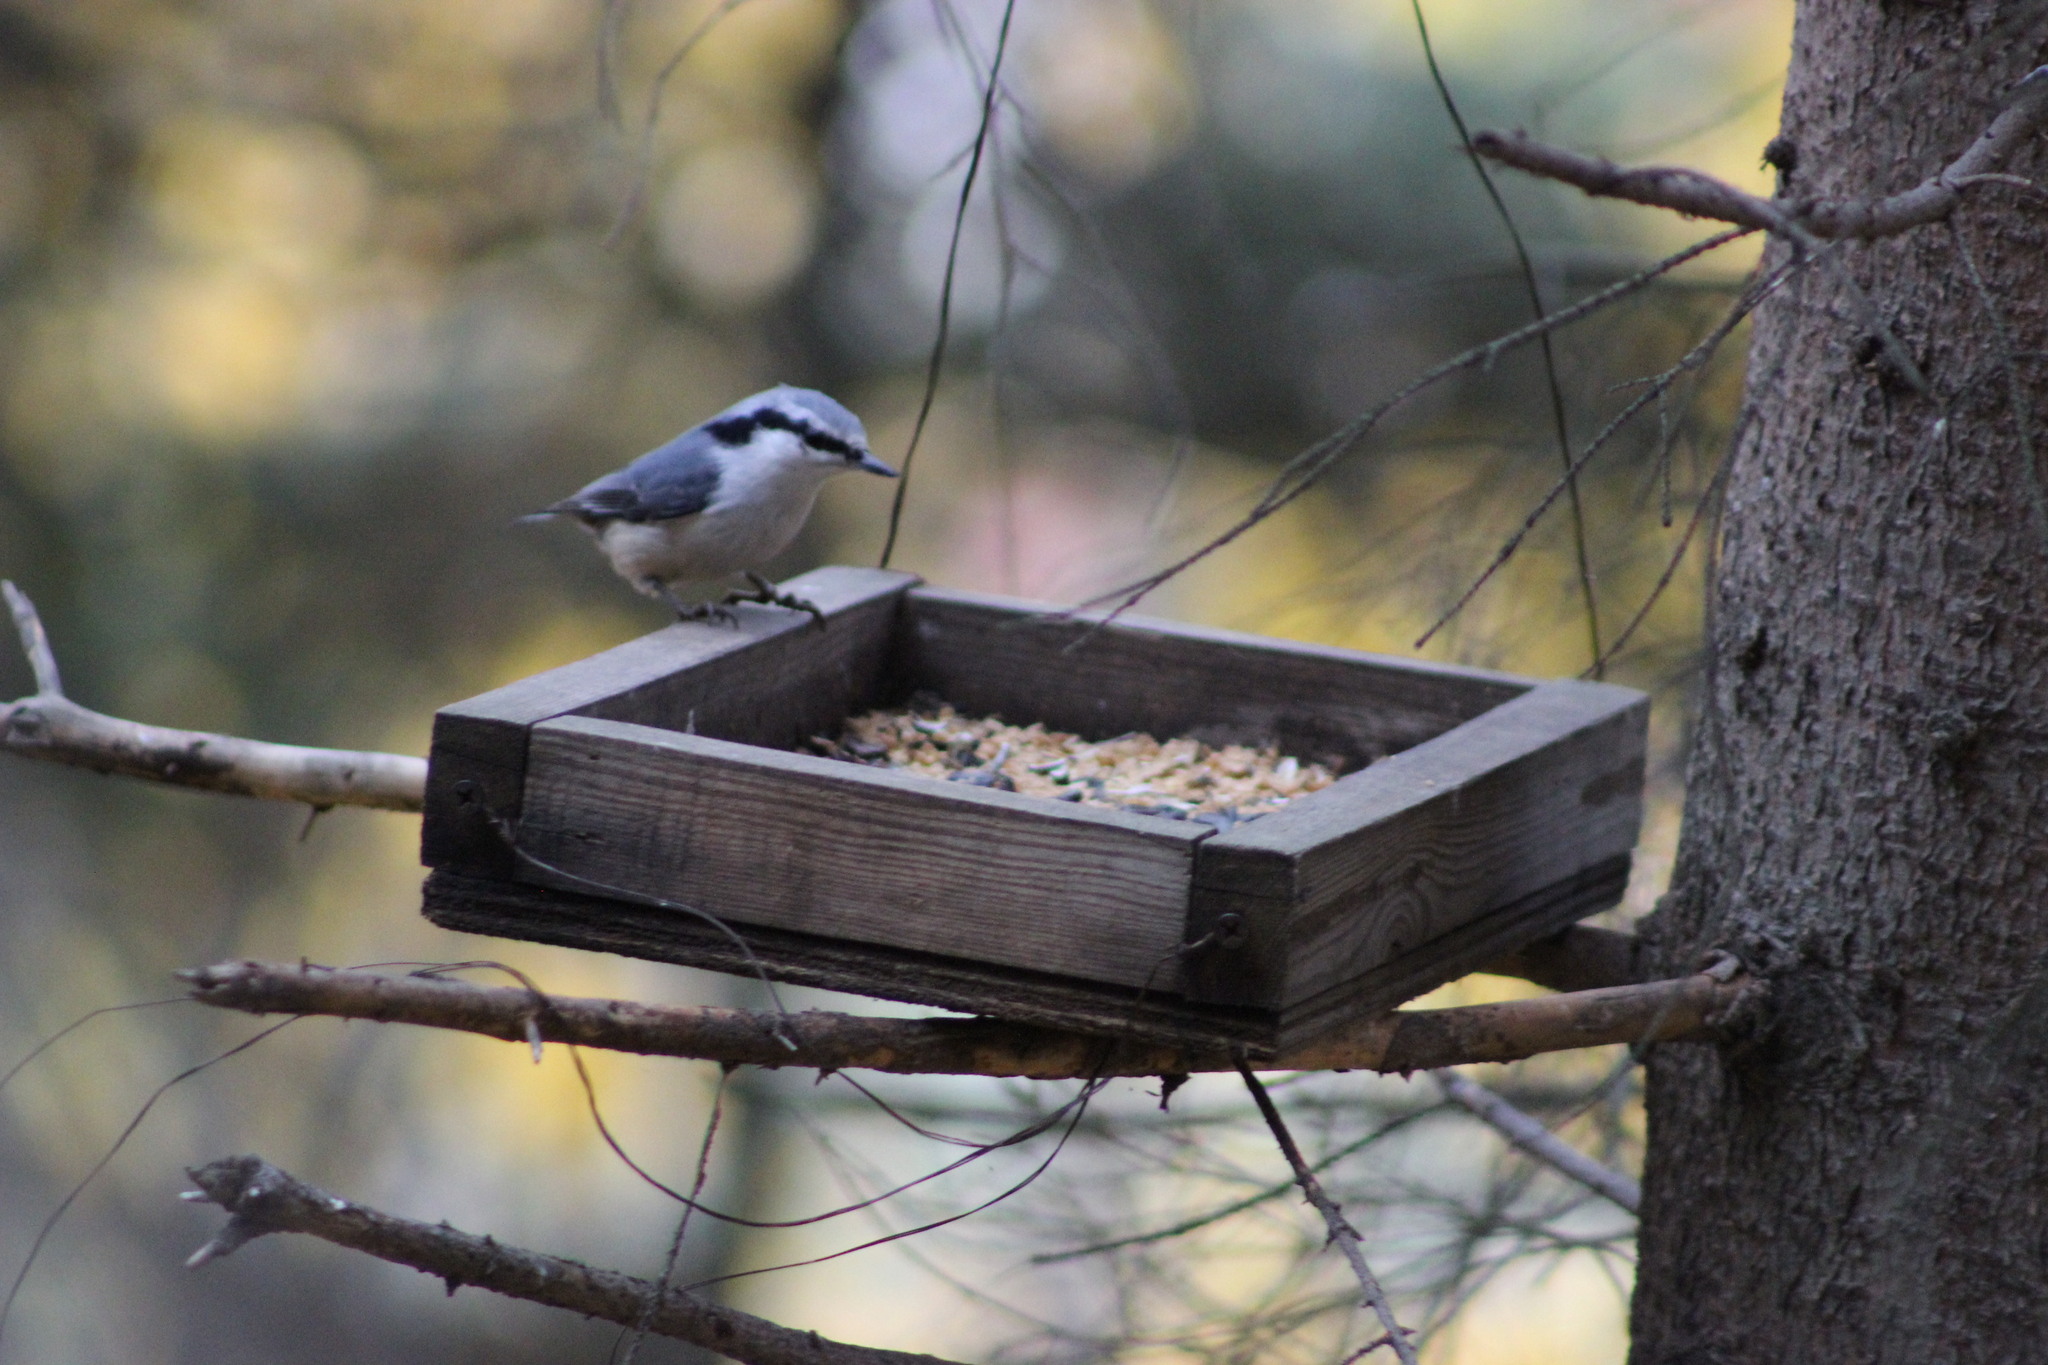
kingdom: Animalia
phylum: Chordata
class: Aves
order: Passeriformes
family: Sittidae
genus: Sitta
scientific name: Sitta europaea
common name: Eurasian nuthatch
